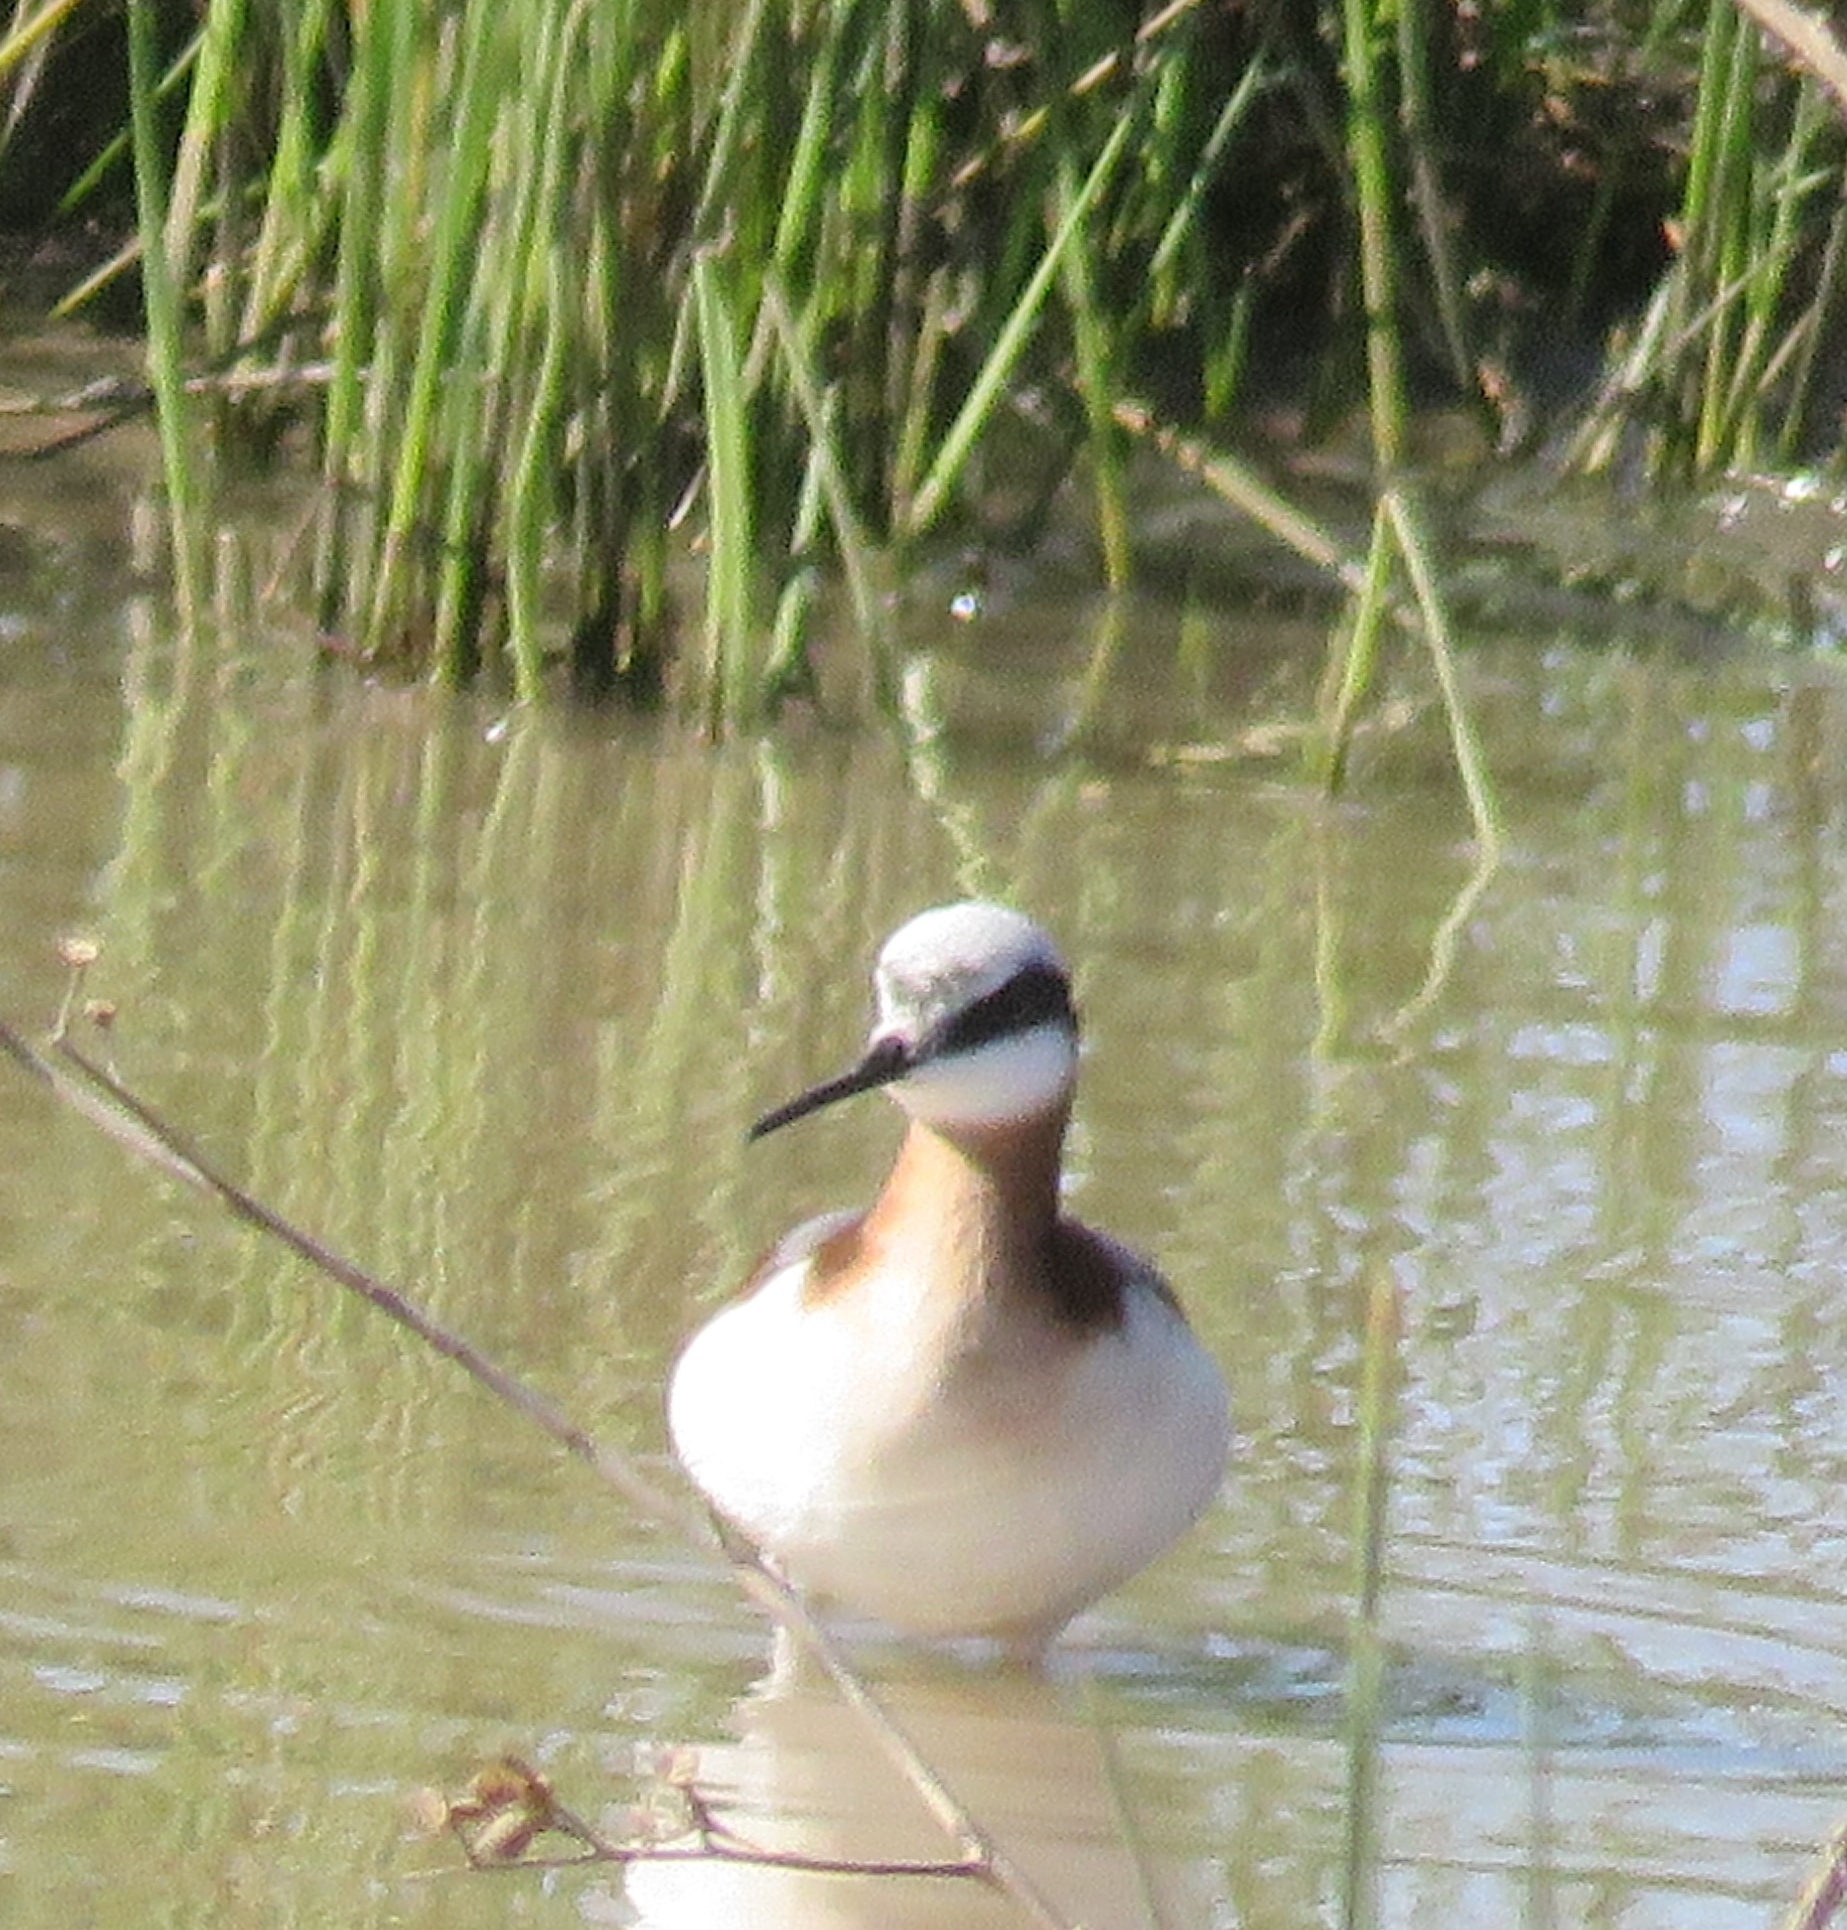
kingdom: Animalia
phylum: Chordata
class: Aves
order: Charadriiformes
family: Scolopacidae
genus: Phalaropus
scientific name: Phalaropus tricolor
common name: Wilson's phalarope
